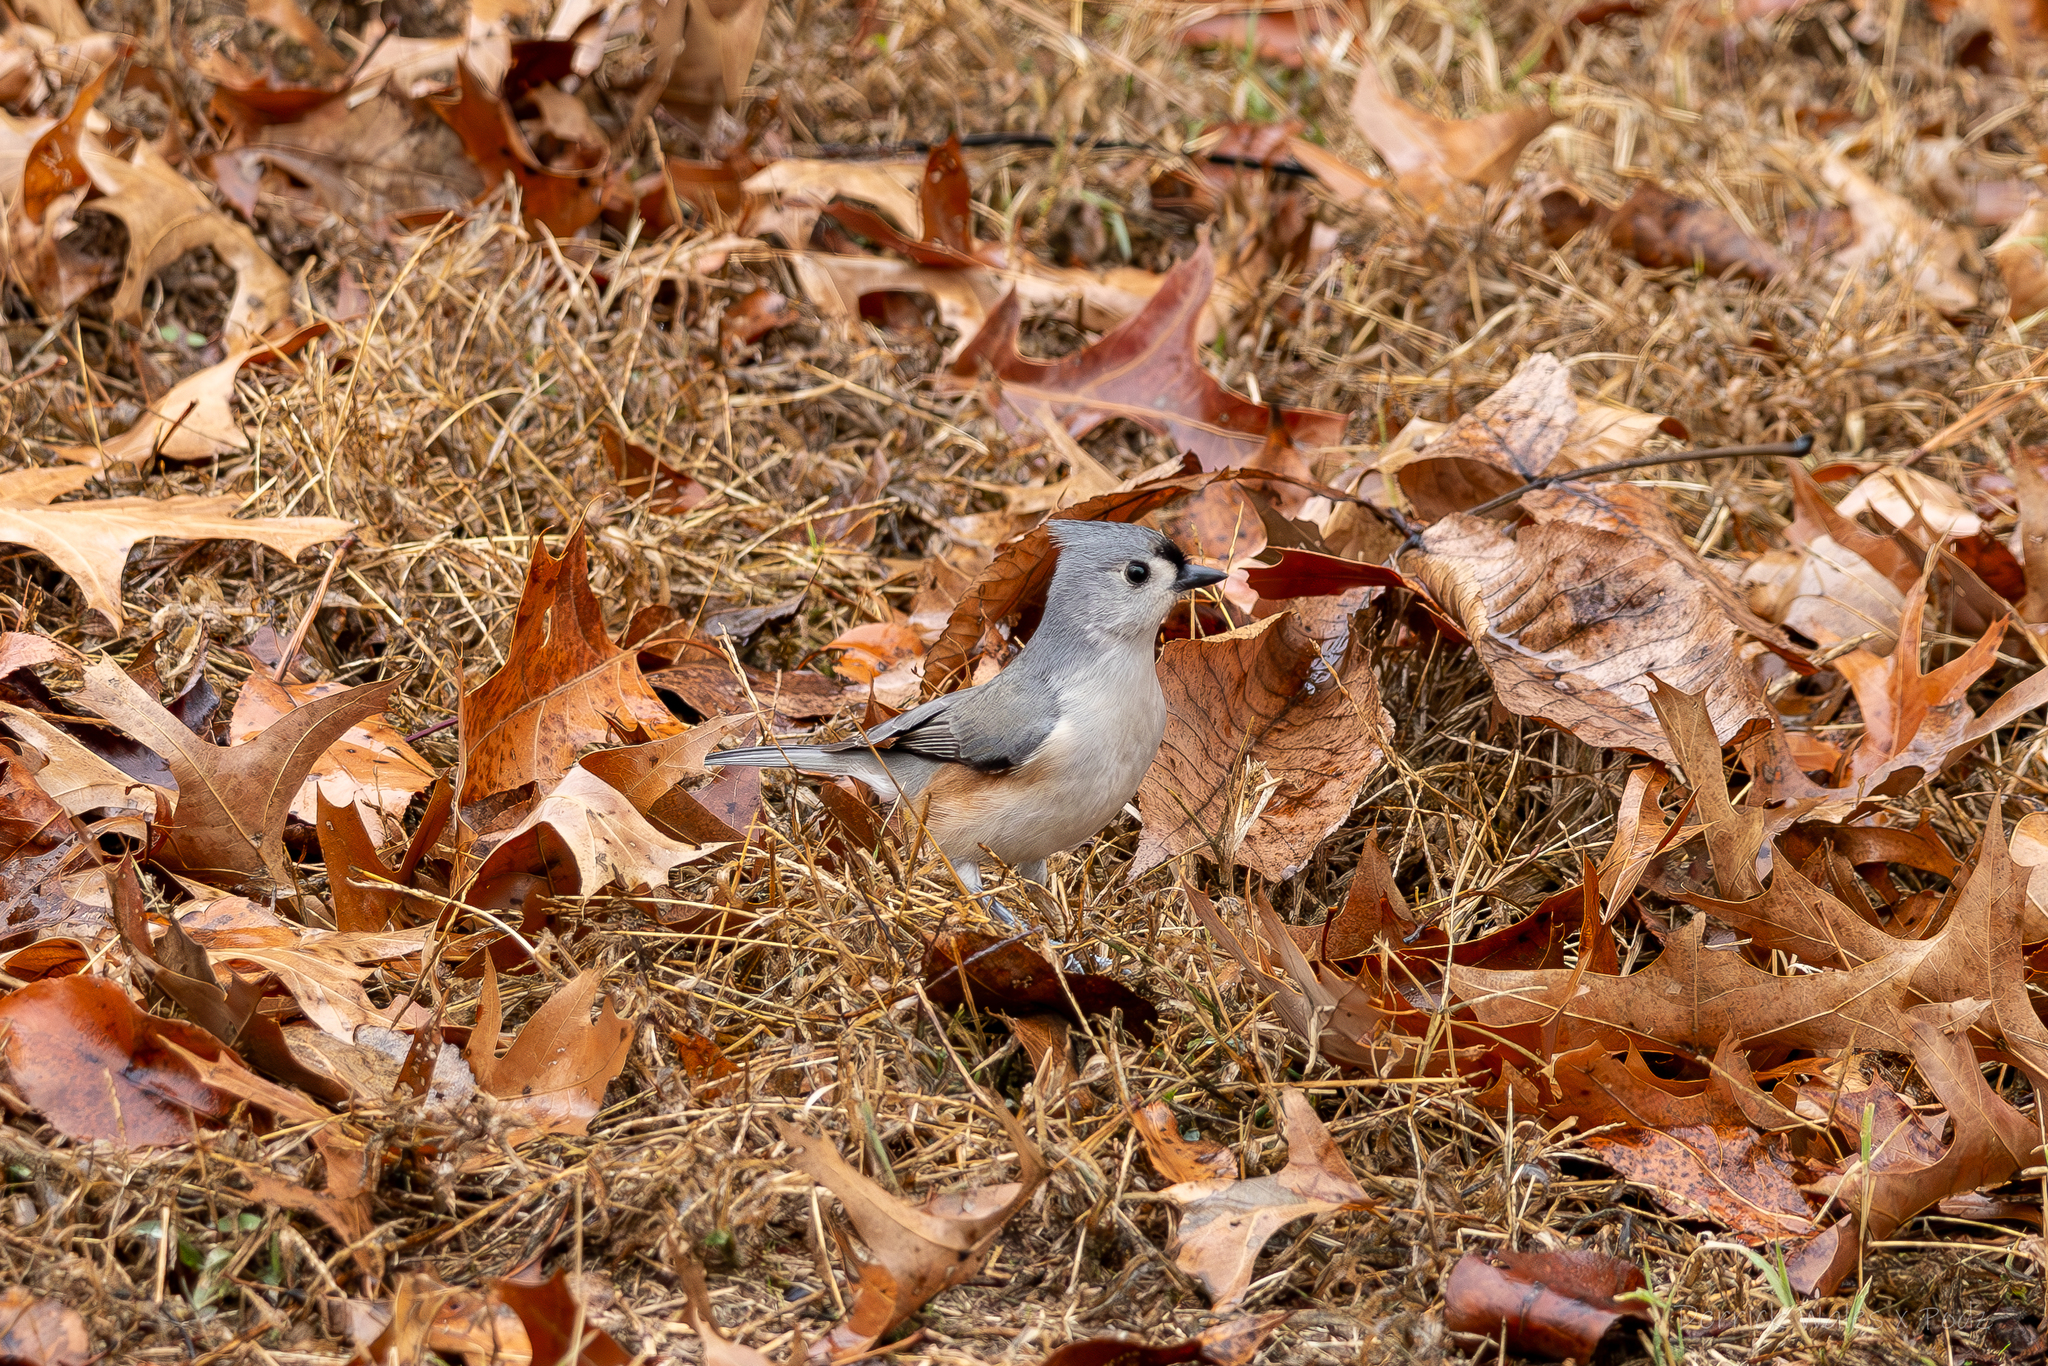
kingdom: Animalia
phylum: Chordata
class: Aves
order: Passeriformes
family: Paridae
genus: Baeolophus
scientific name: Baeolophus bicolor
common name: Tufted titmouse
